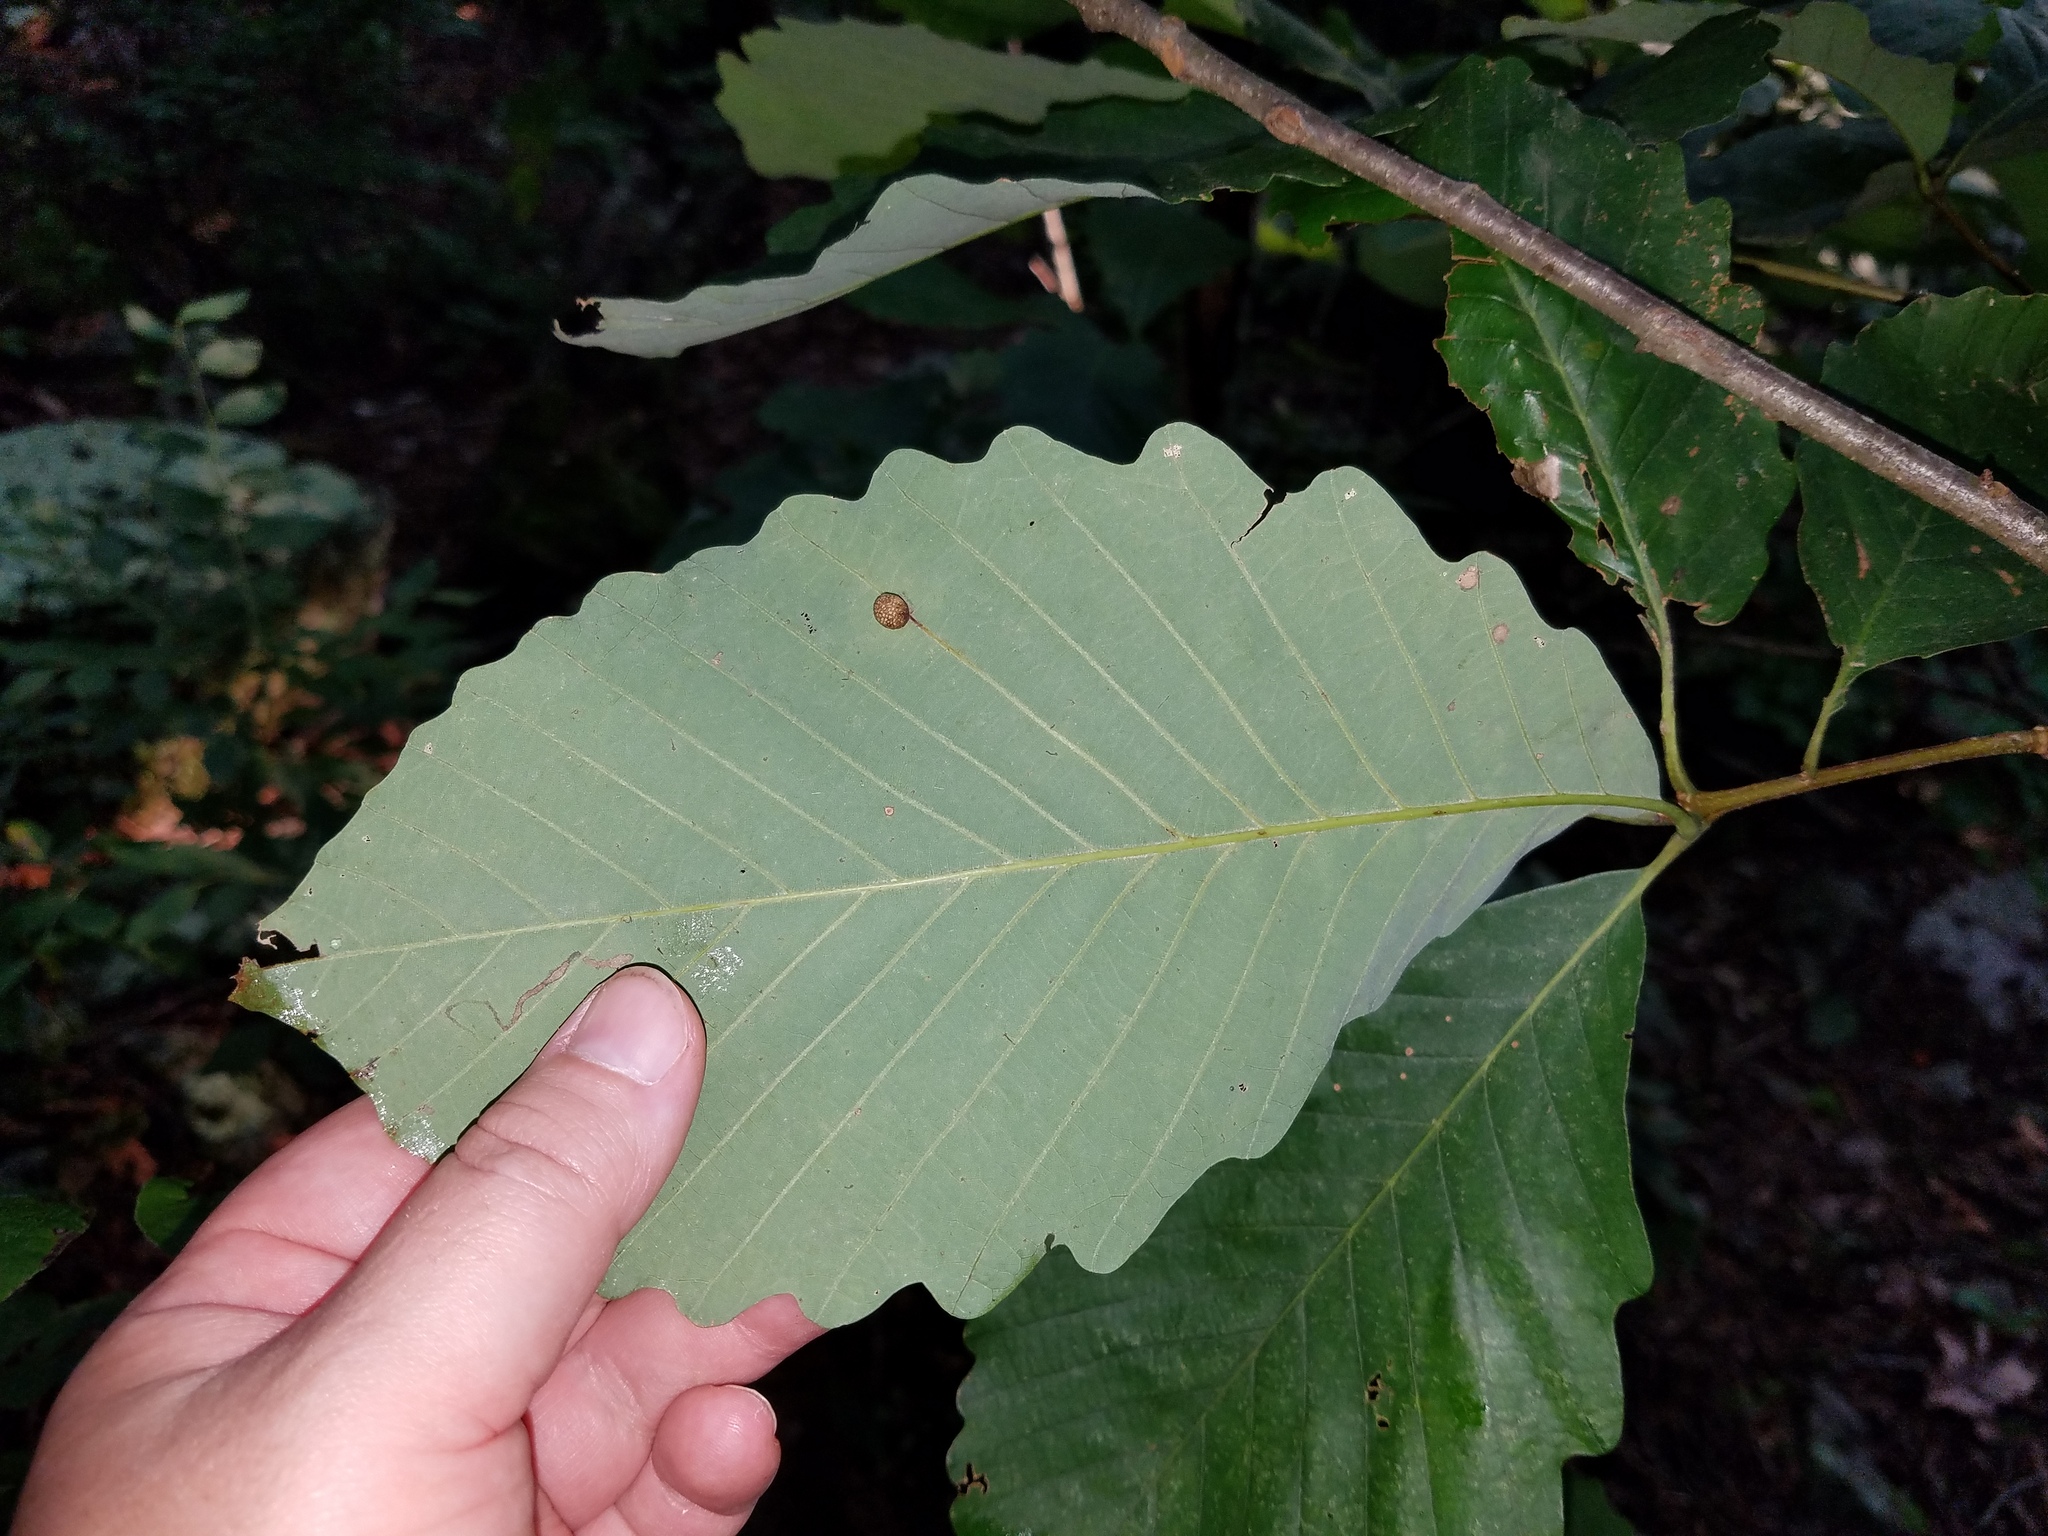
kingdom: Animalia
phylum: Arthropoda
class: Insecta
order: Hymenoptera
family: Cynipidae
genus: Acraspis
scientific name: Acraspis quercushirta
